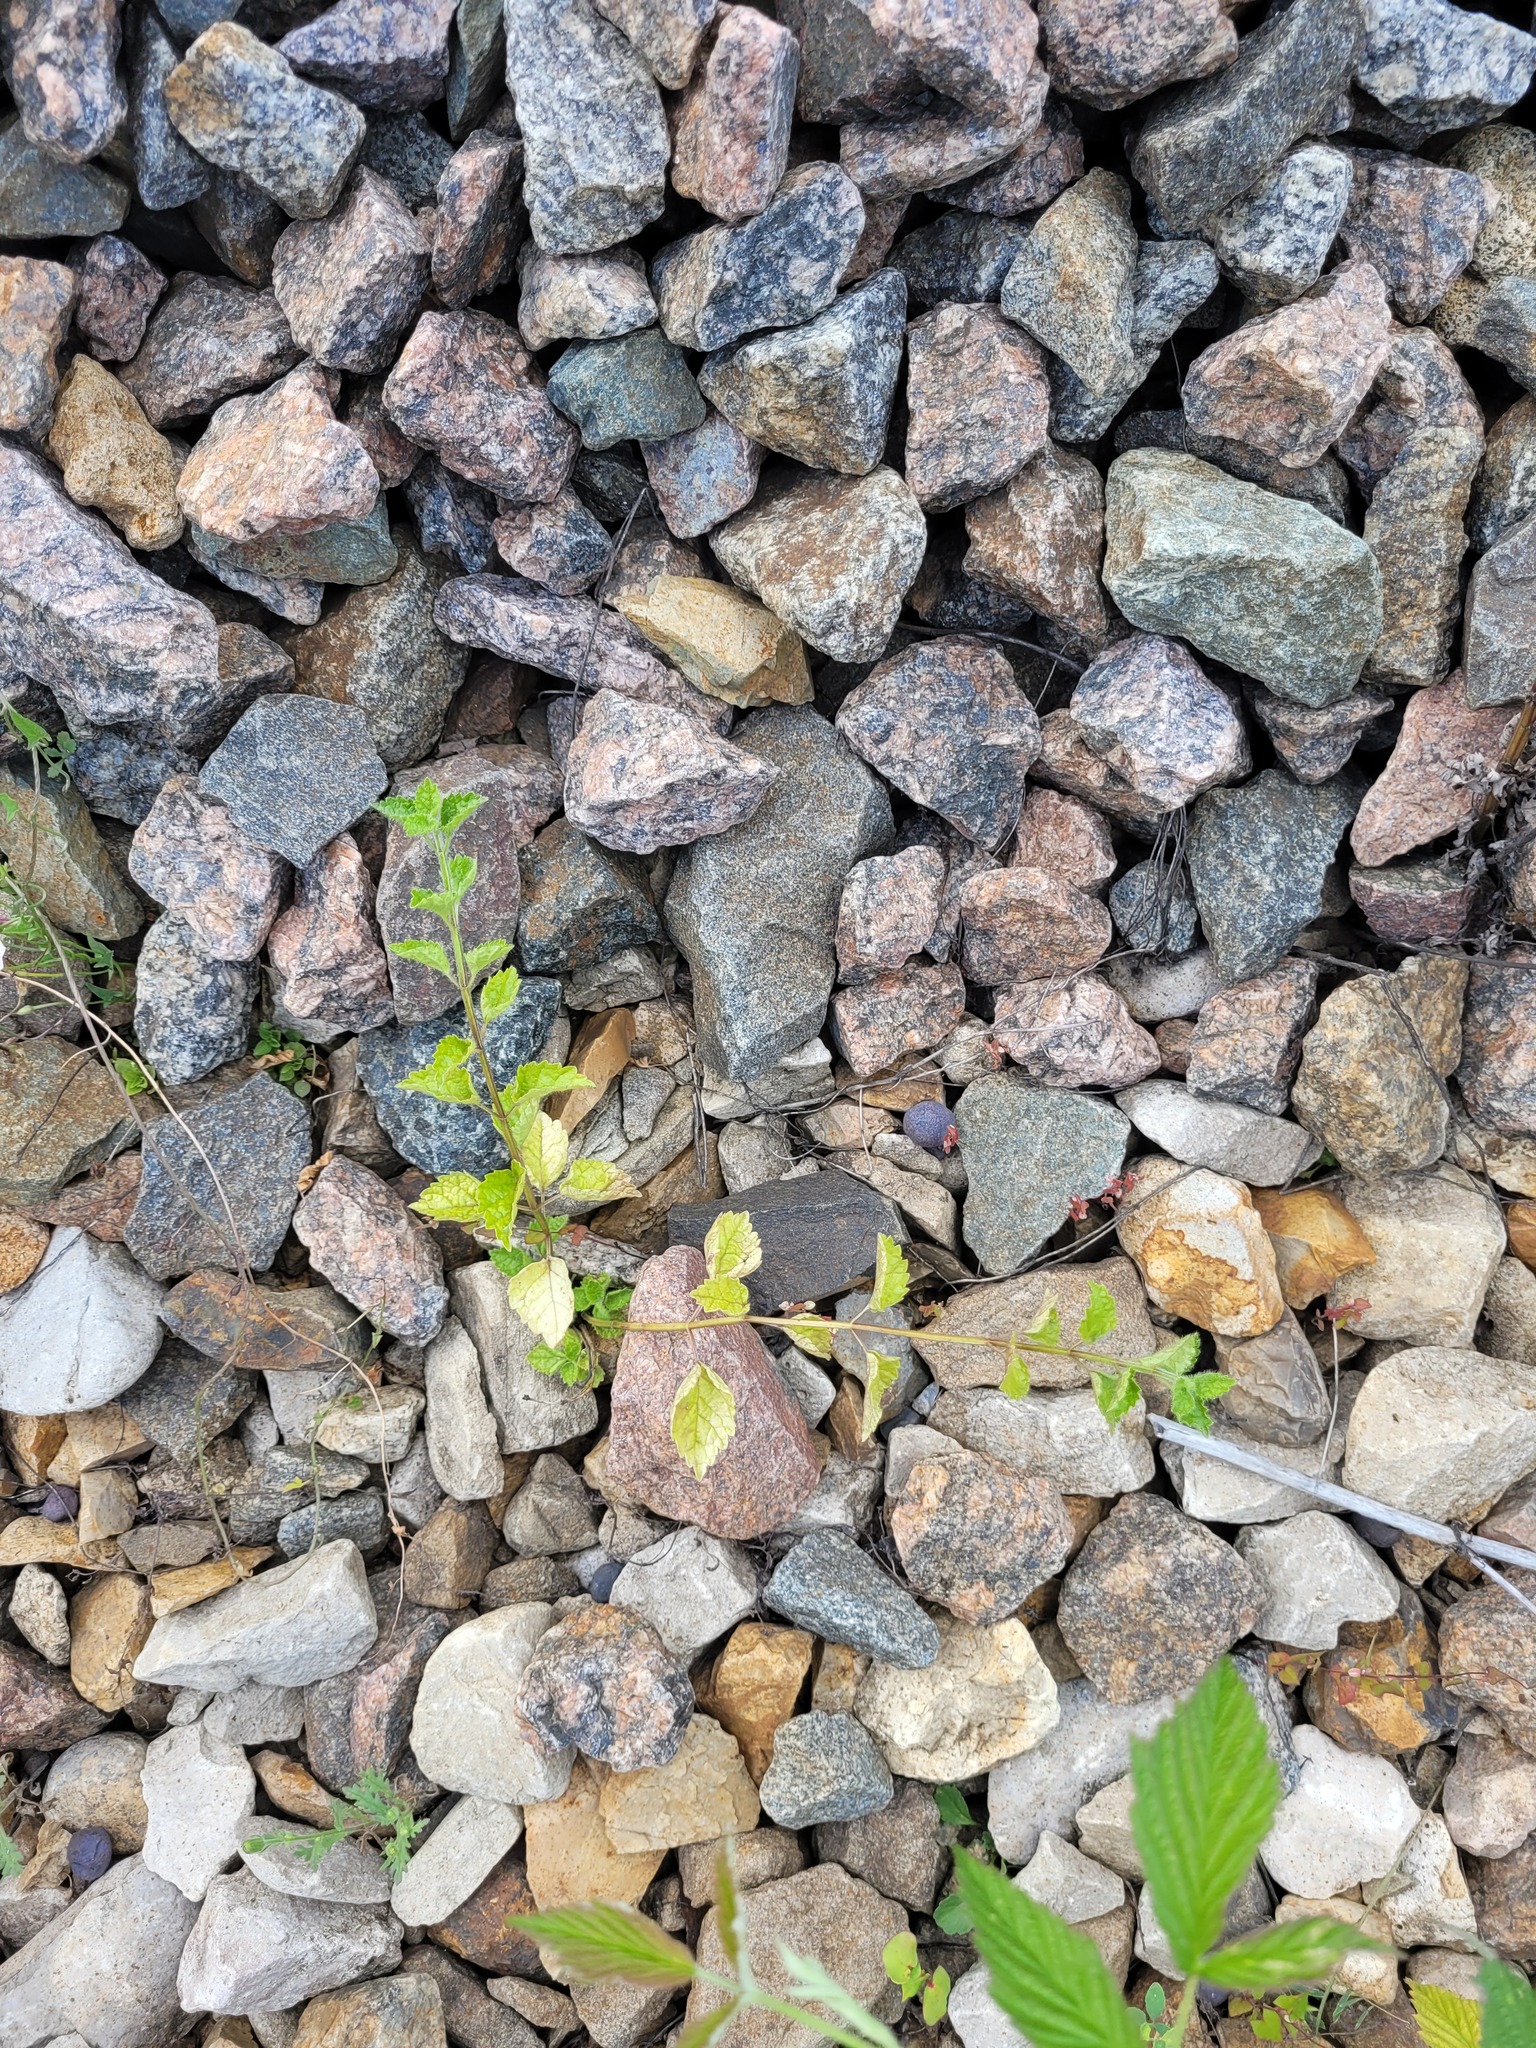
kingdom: Plantae
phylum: Tracheophyta
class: Magnoliopsida
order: Lamiales
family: Lamiaceae
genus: Lamium
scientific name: Lamium galeobdolon
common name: Yellow archangel
